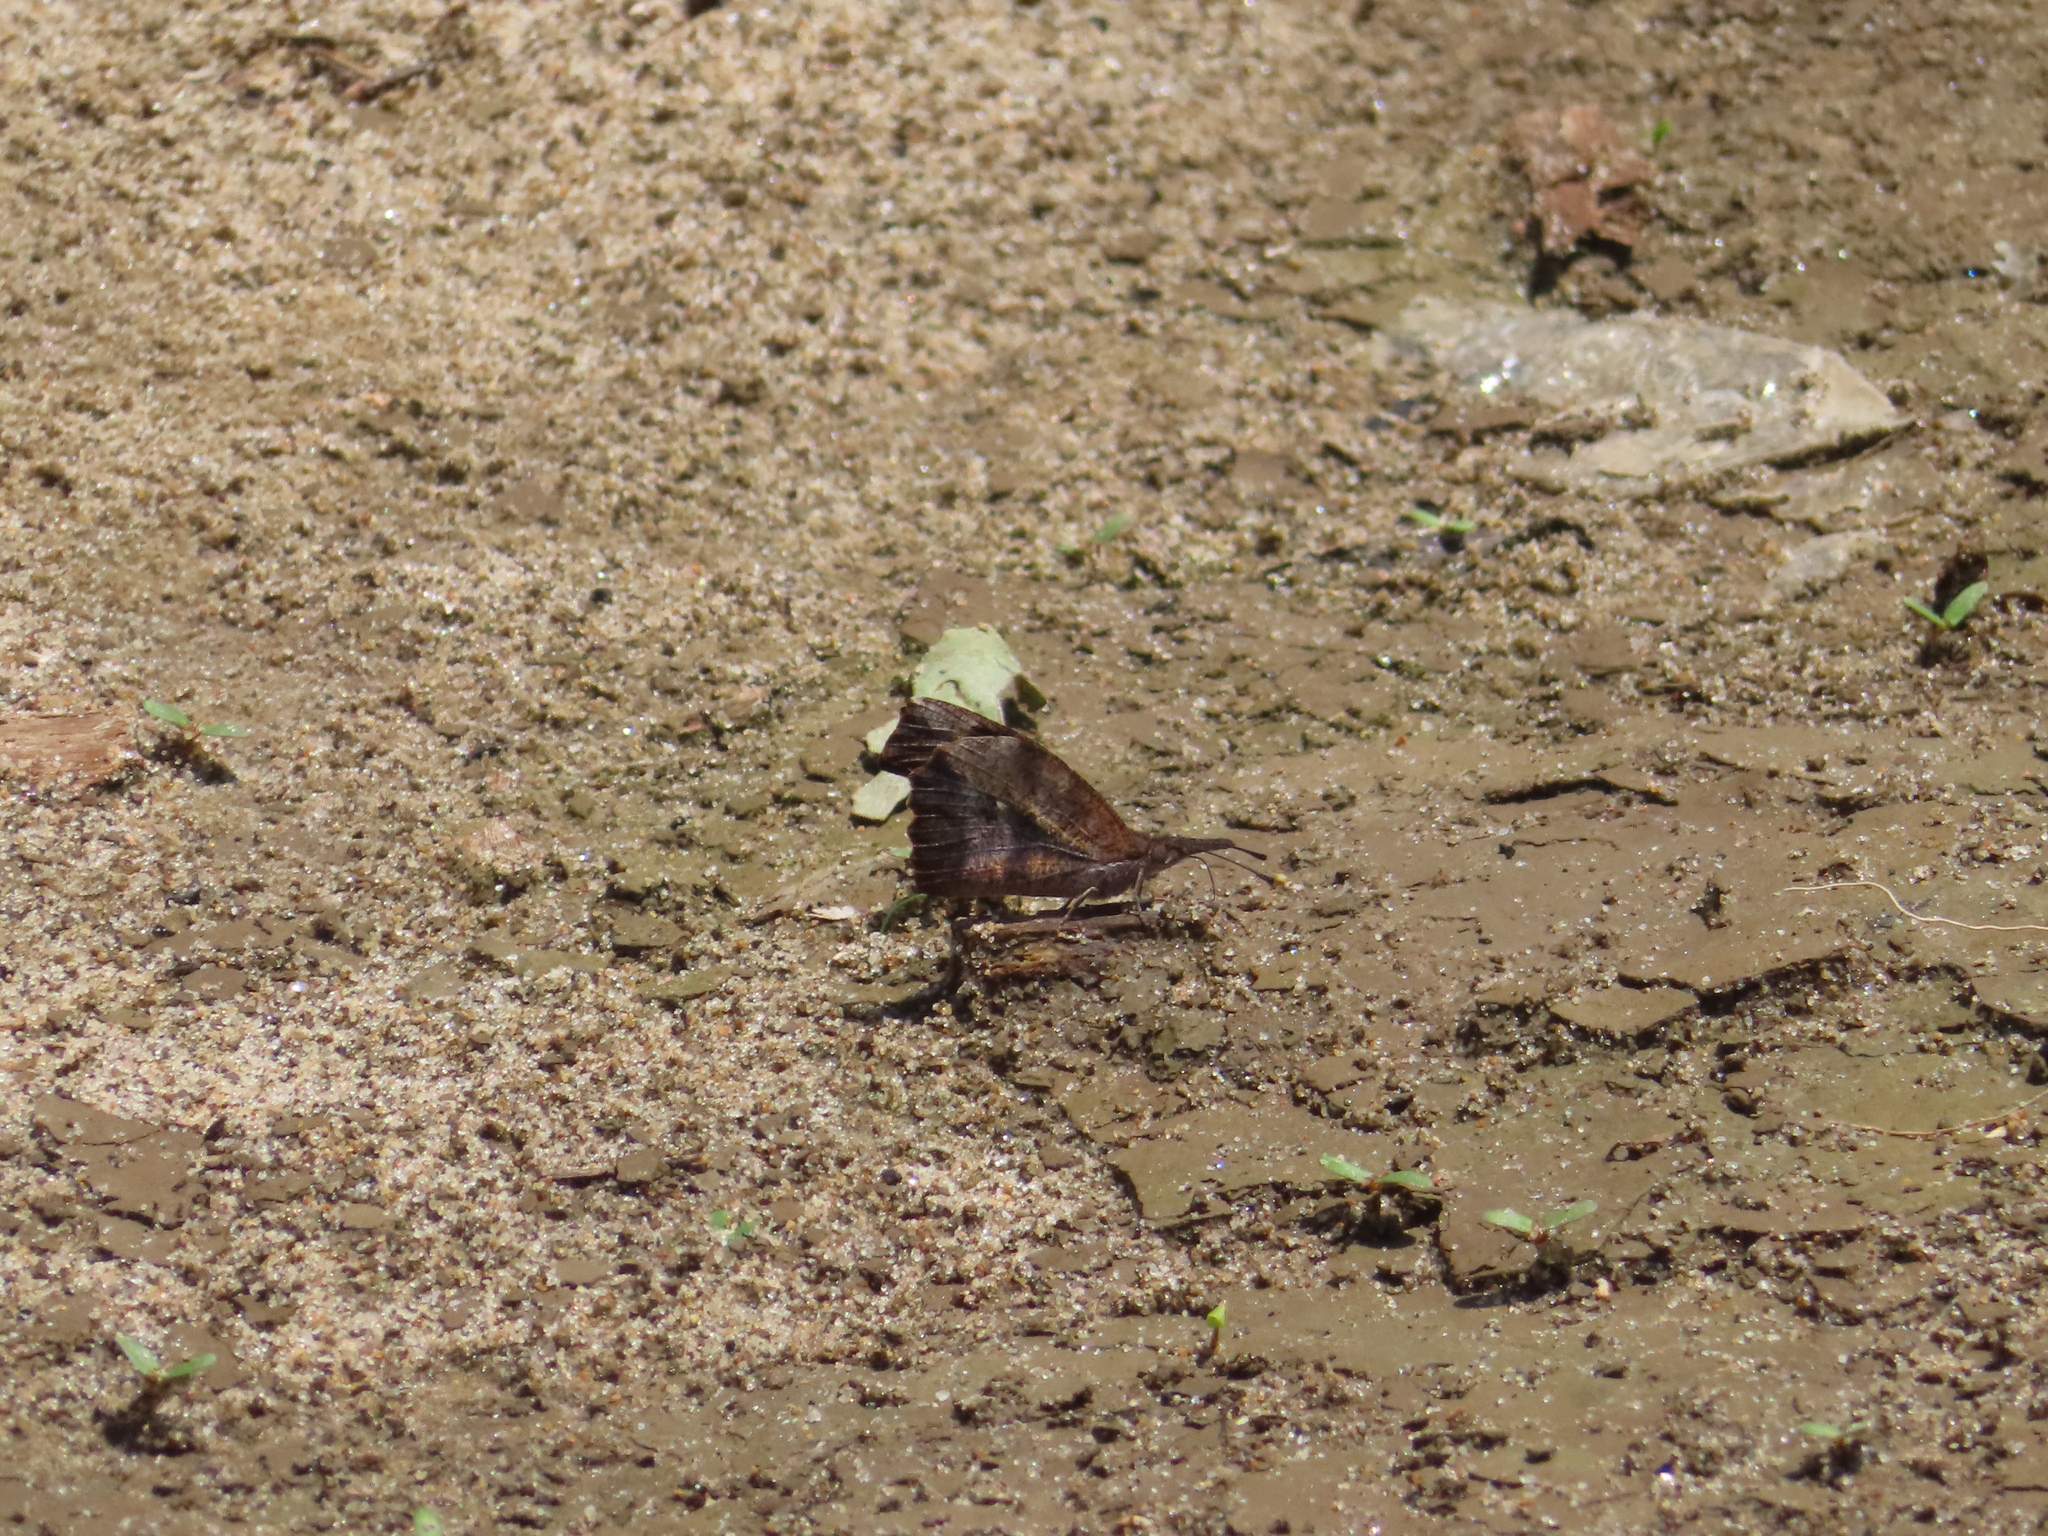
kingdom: Animalia
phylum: Arthropoda
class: Insecta
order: Lepidoptera
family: Nymphalidae
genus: Libytheana
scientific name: Libytheana carinenta
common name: American snout
